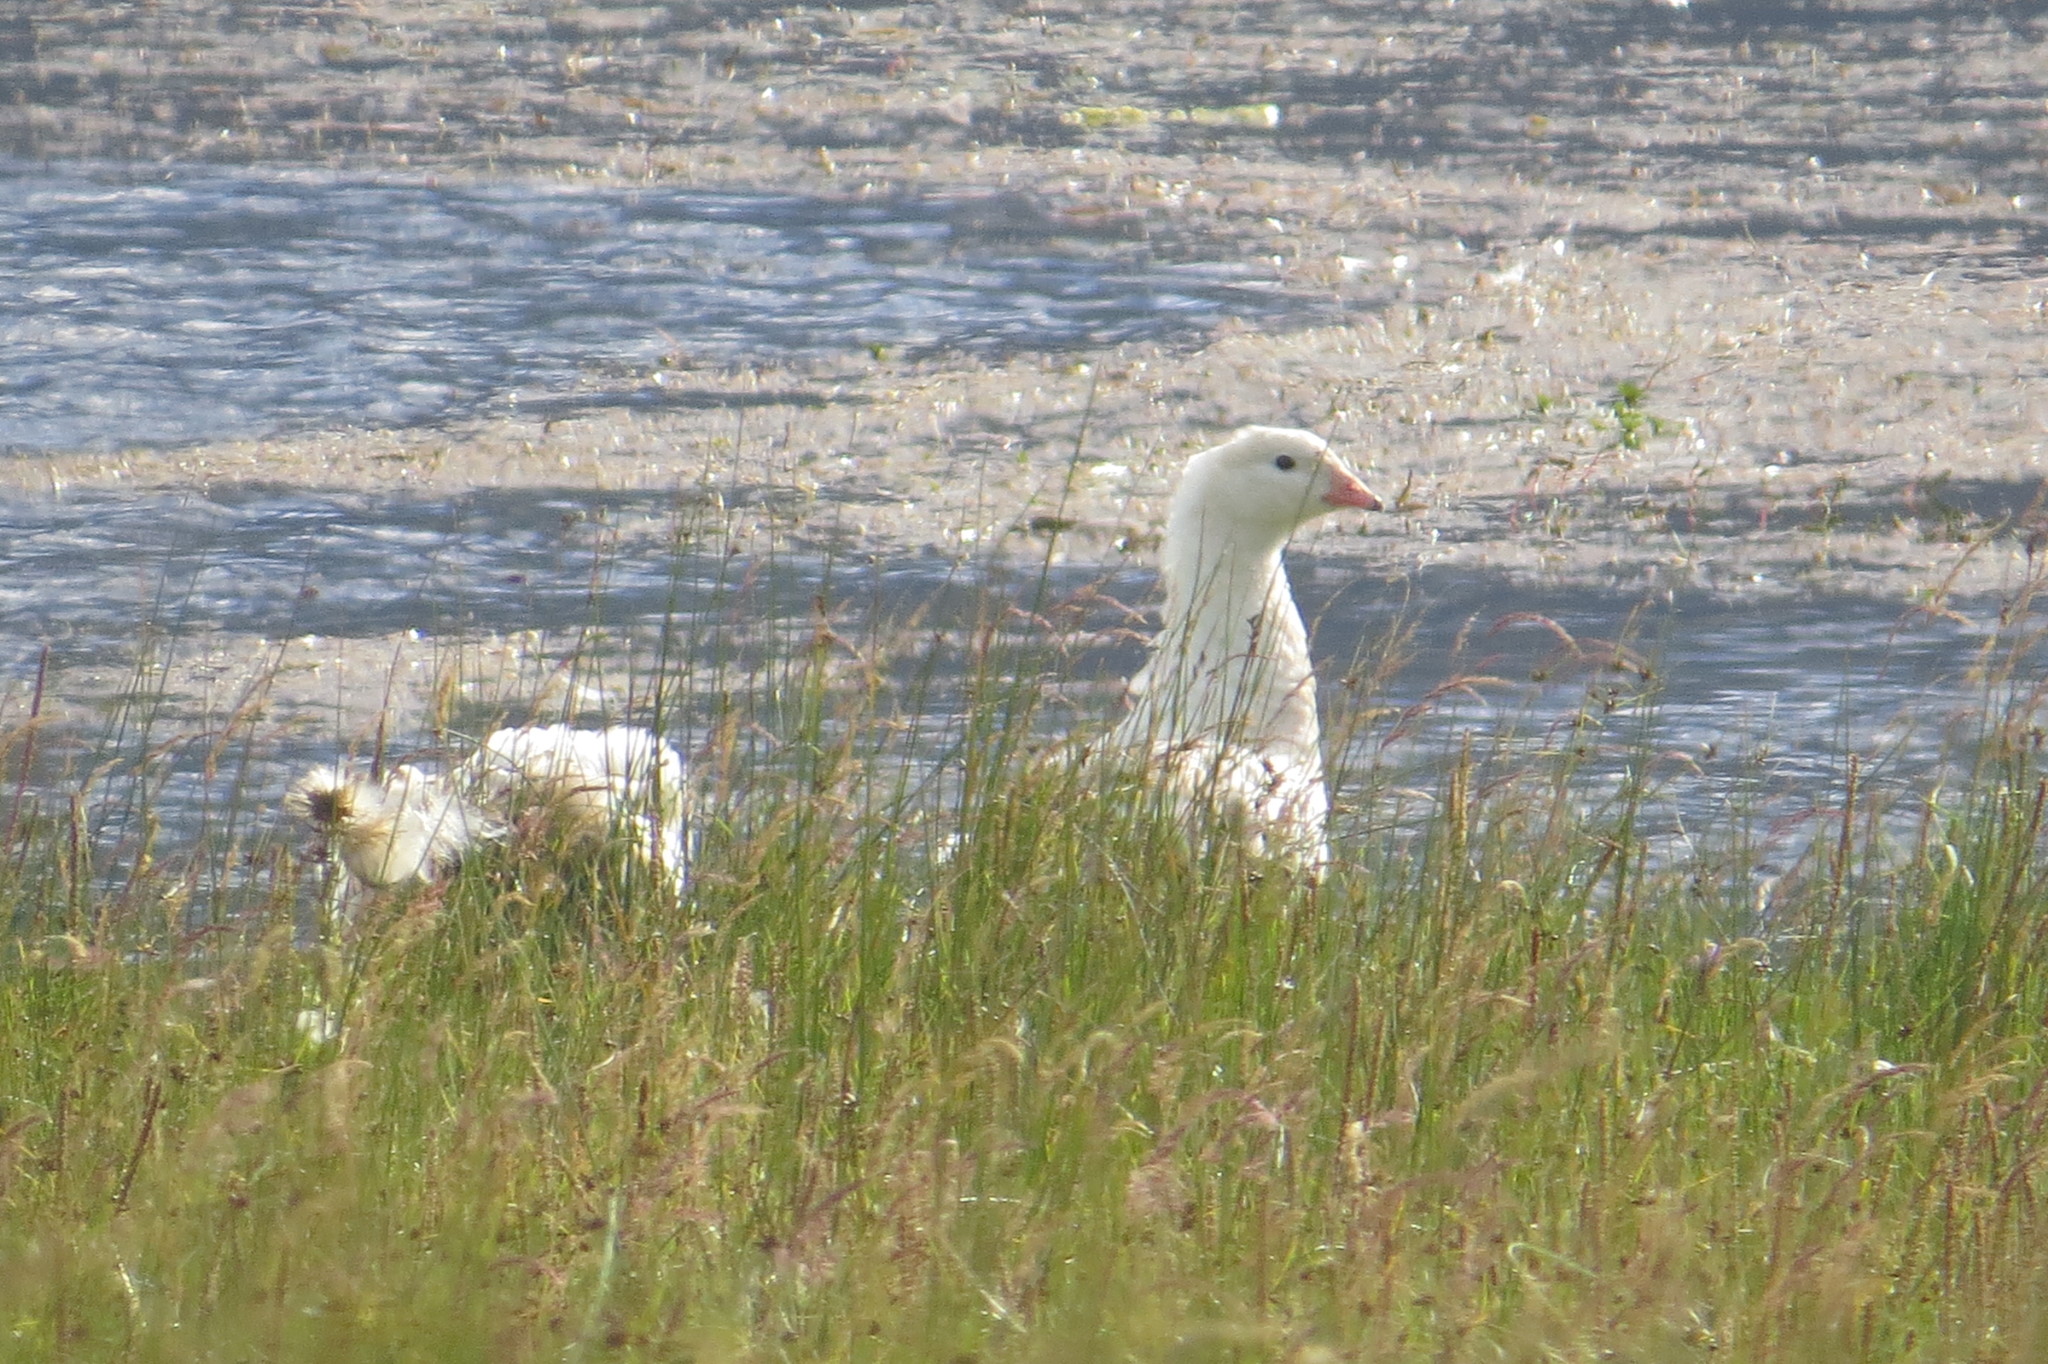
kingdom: Animalia
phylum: Chordata
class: Aves
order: Anseriformes
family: Anatidae
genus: Chloephaga
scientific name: Chloephaga melanoptera
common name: Andean goose
